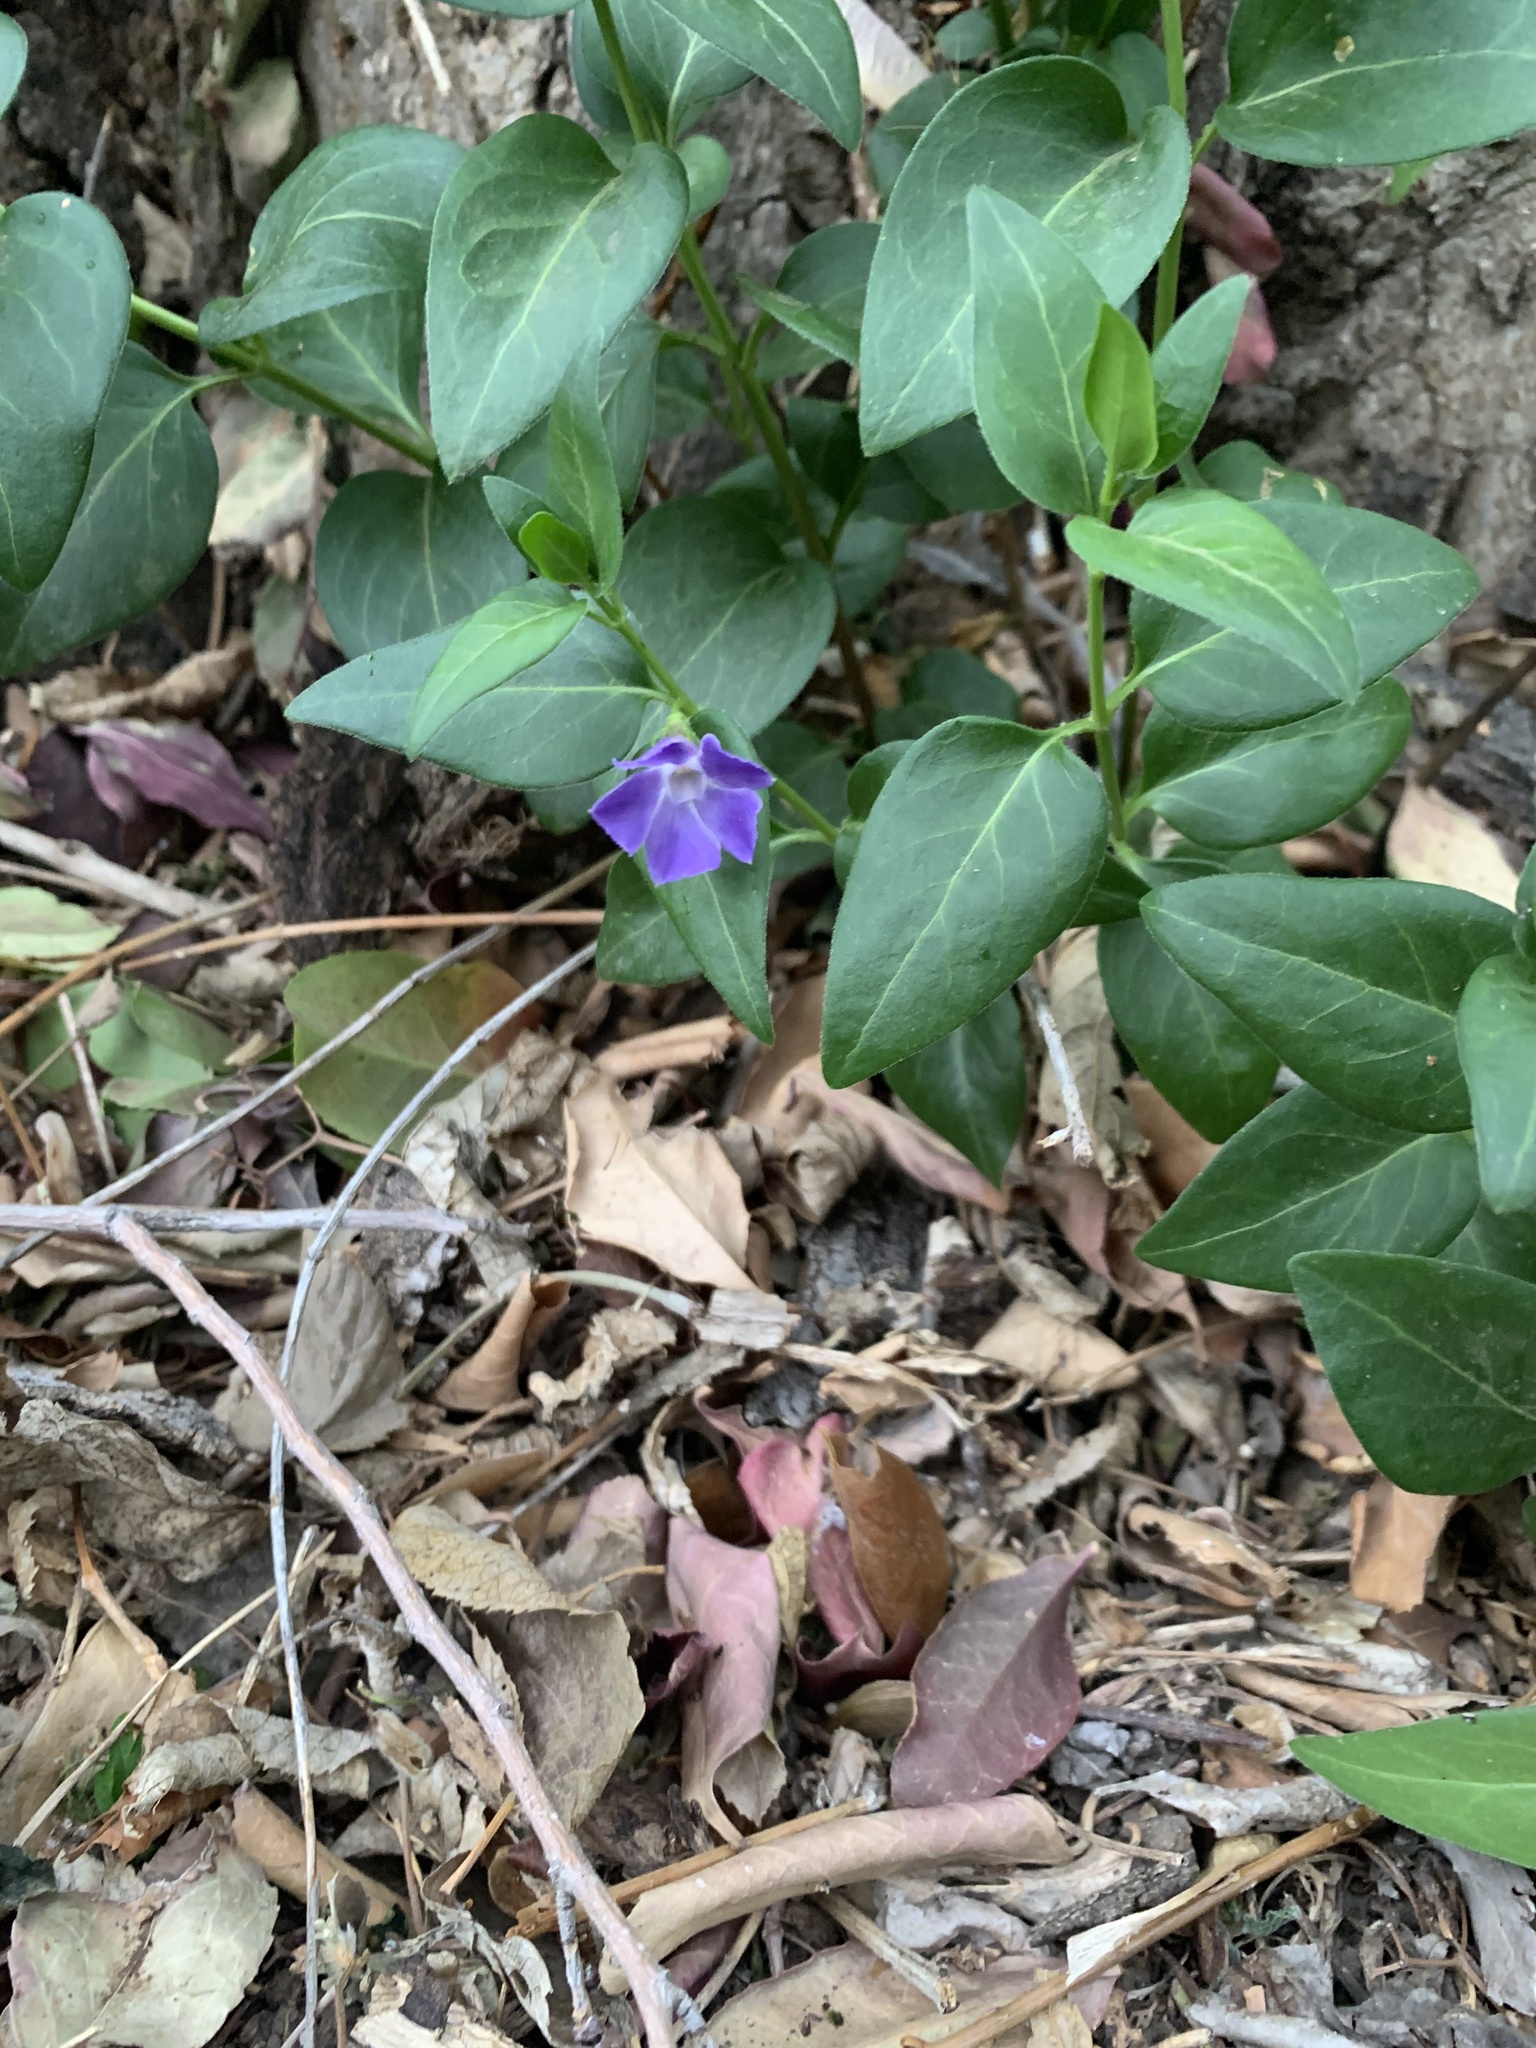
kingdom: Plantae
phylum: Tracheophyta
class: Magnoliopsida
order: Gentianales
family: Apocynaceae
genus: Vinca
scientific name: Vinca major
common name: Greater periwinkle
